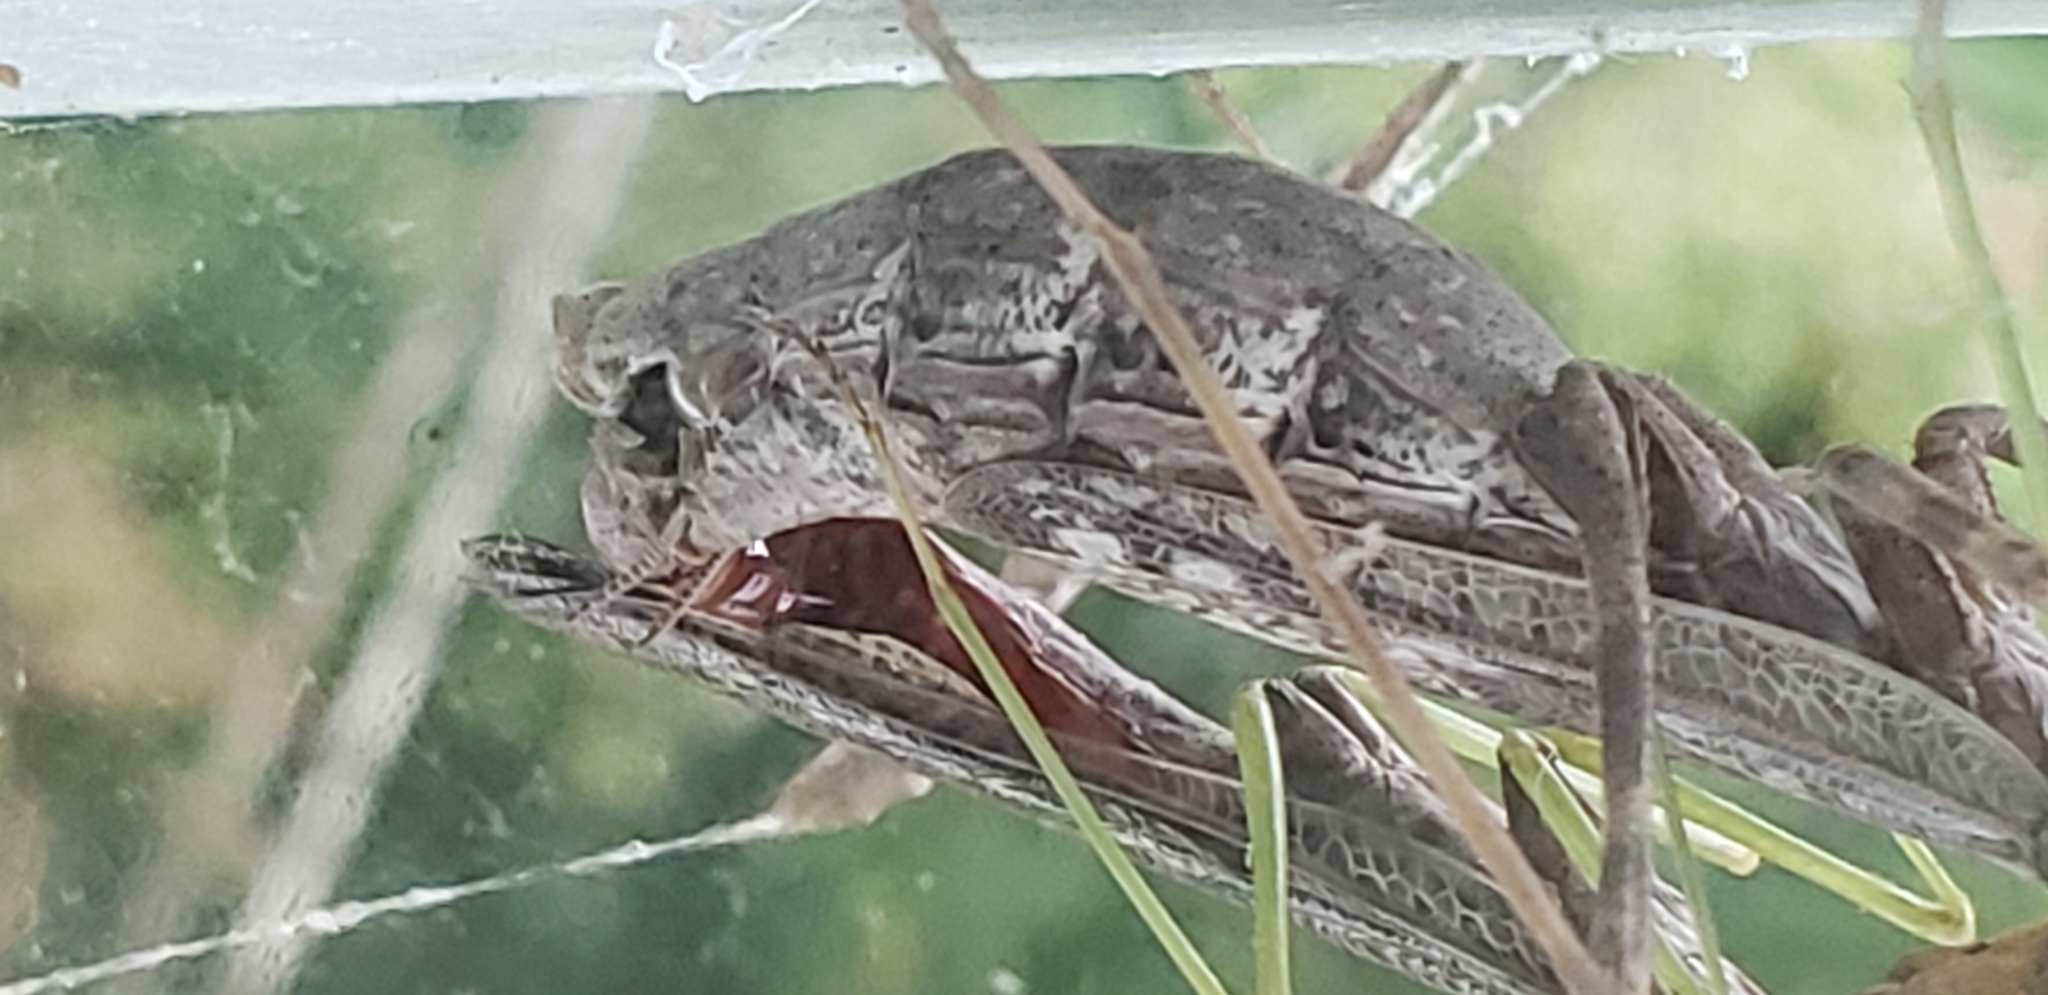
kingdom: Animalia
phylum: Arthropoda
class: Insecta
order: Mantodea
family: Mantidae
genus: Stagmomantis
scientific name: Stagmomantis carolina
